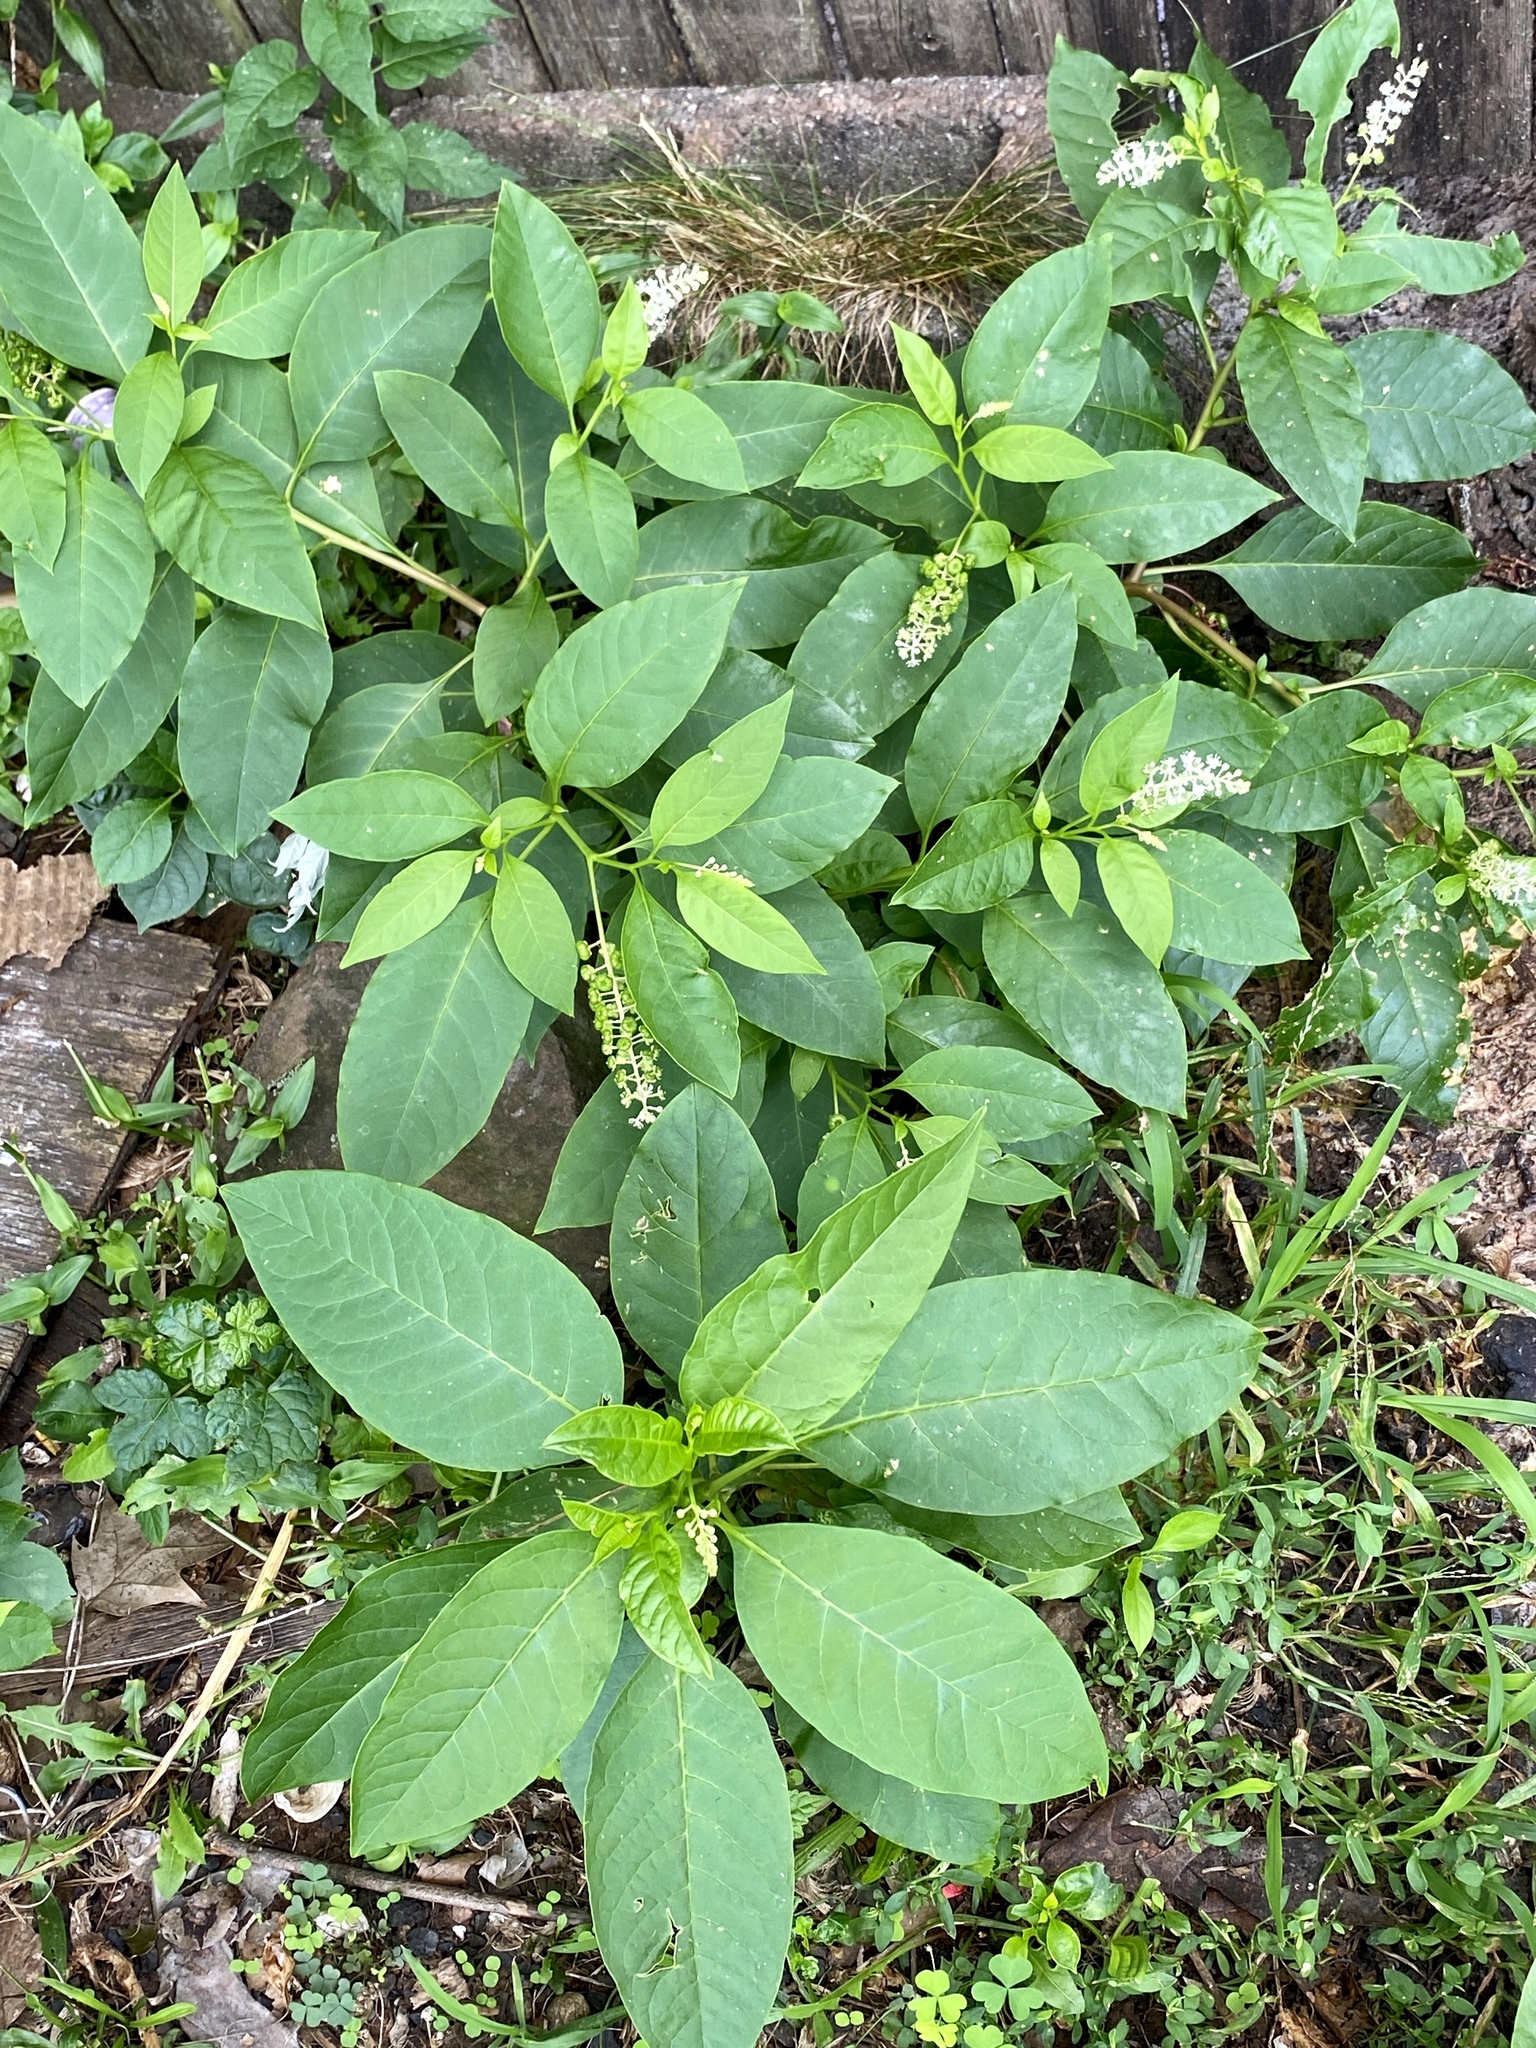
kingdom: Plantae
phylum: Tracheophyta
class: Magnoliopsida
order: Caryophyllales
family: Phytolaccaceae
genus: Phytolacca
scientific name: Phytolacca americana
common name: American pokeweed
